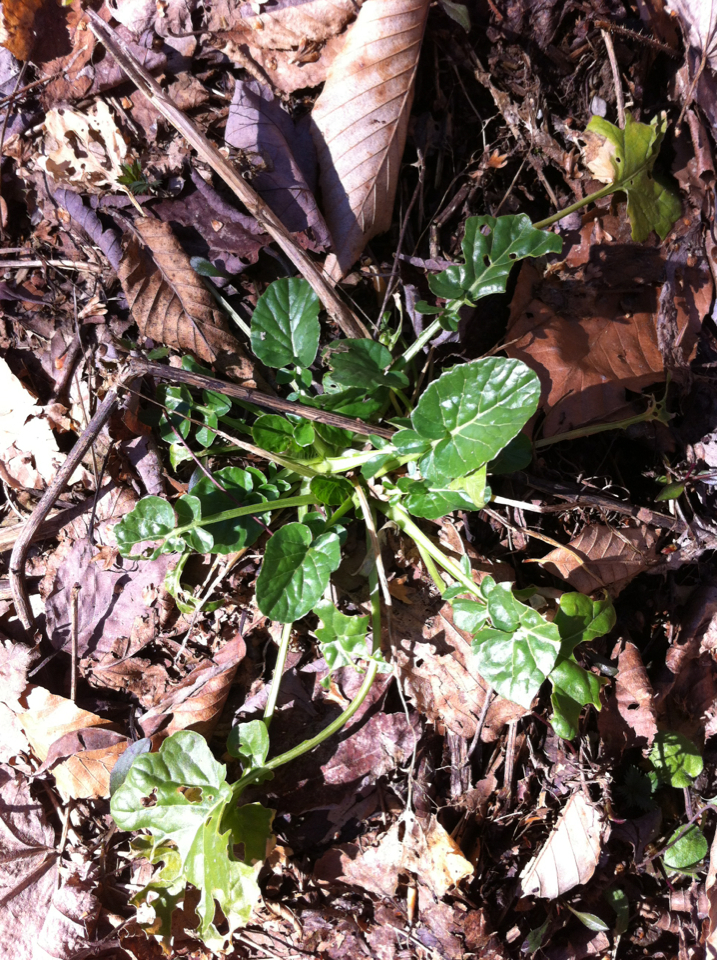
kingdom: Plantae
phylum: Tracheophyta
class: Magnoliopsida
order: Brassicales
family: Brassicaceae
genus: Barbarea
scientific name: Barbarea vulgaris
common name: Cressy-greens
